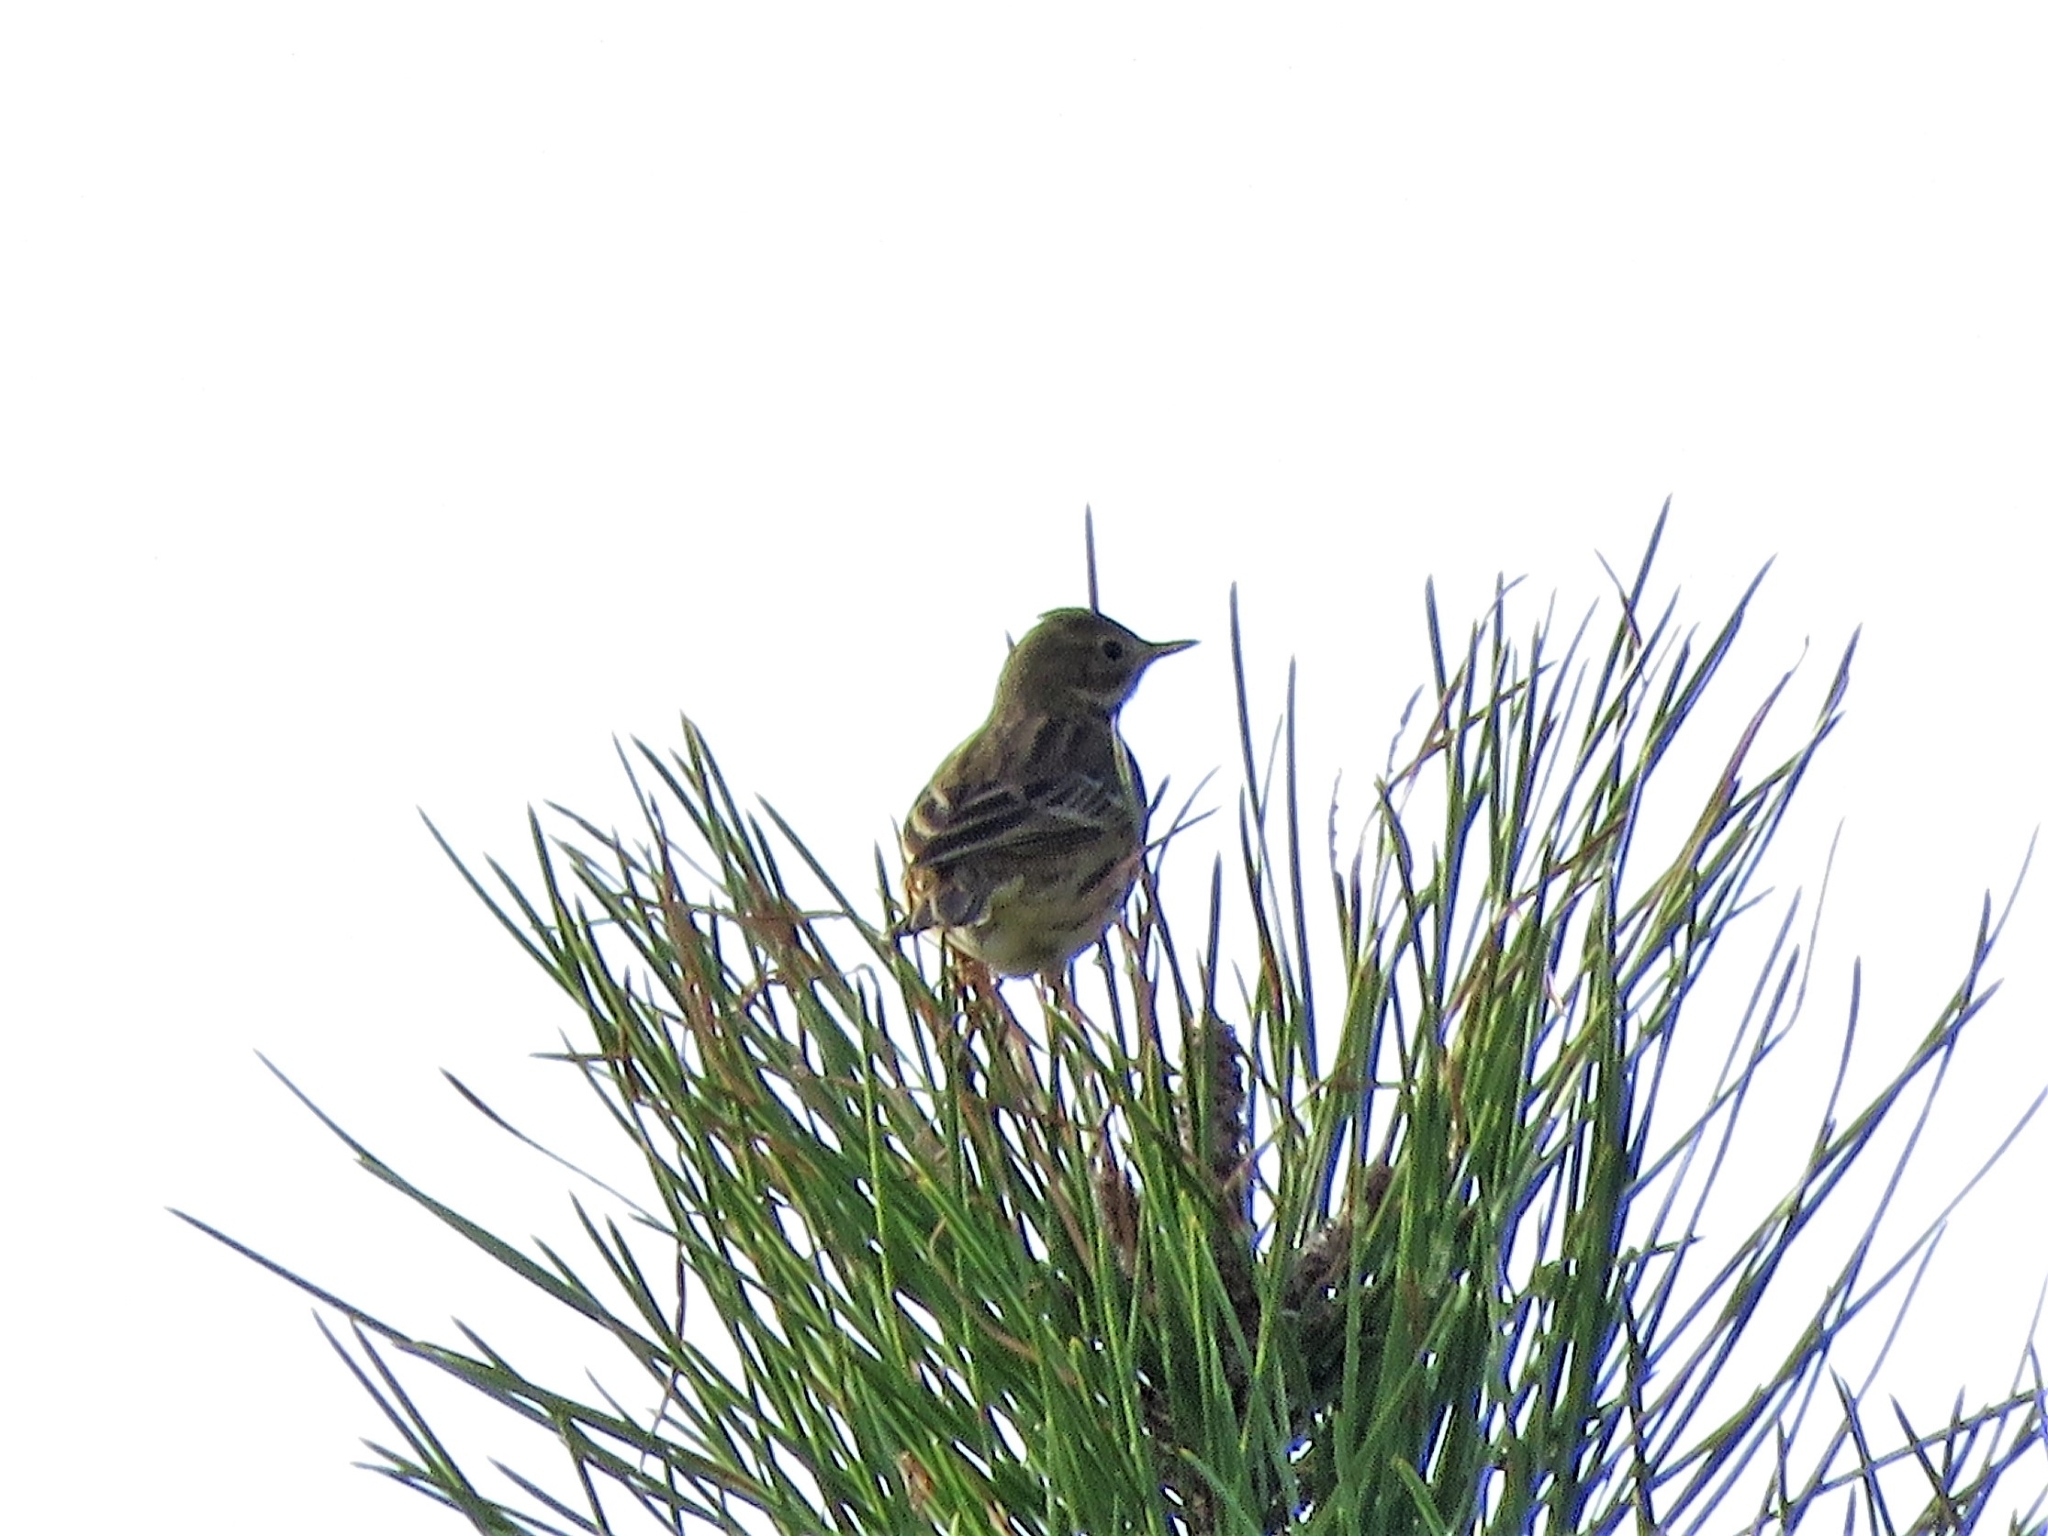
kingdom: Animalia
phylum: Chordata
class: Aves
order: Passeriformes
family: Motacillidae
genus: Anthus
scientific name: Anthus pratensis
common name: Meadow pipit
